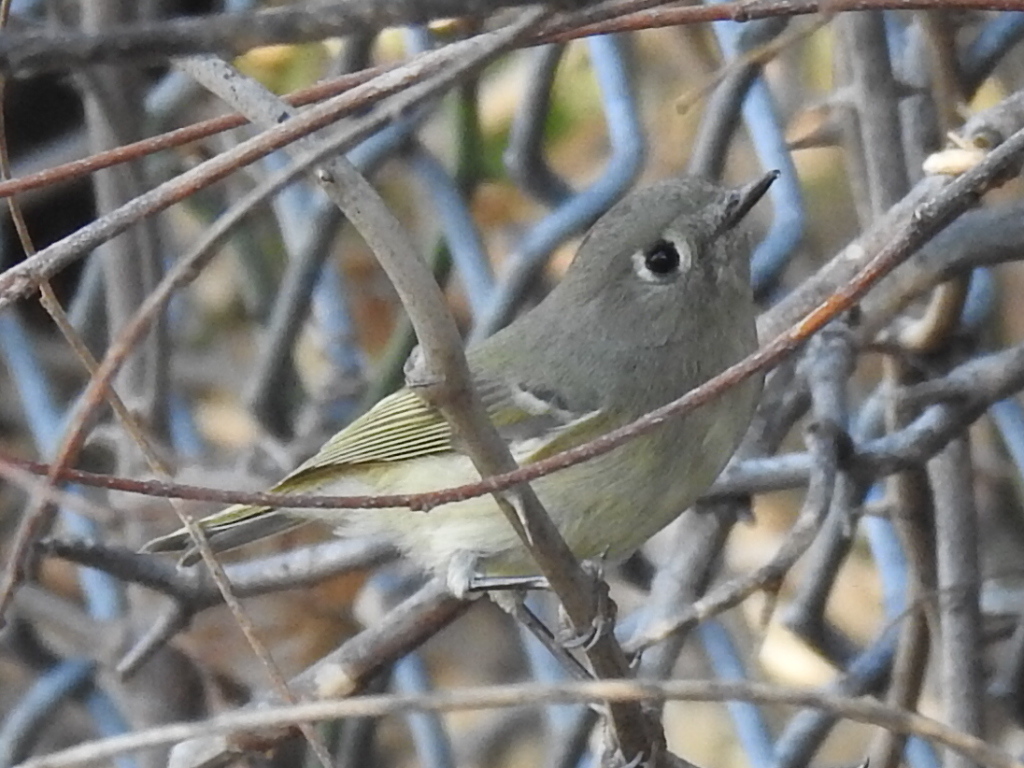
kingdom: Animalia
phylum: Chordata
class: Aves
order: Passeriformes
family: Regulidae
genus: Regulus
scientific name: Regulus calendula
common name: Ruby-crowned kinglet
